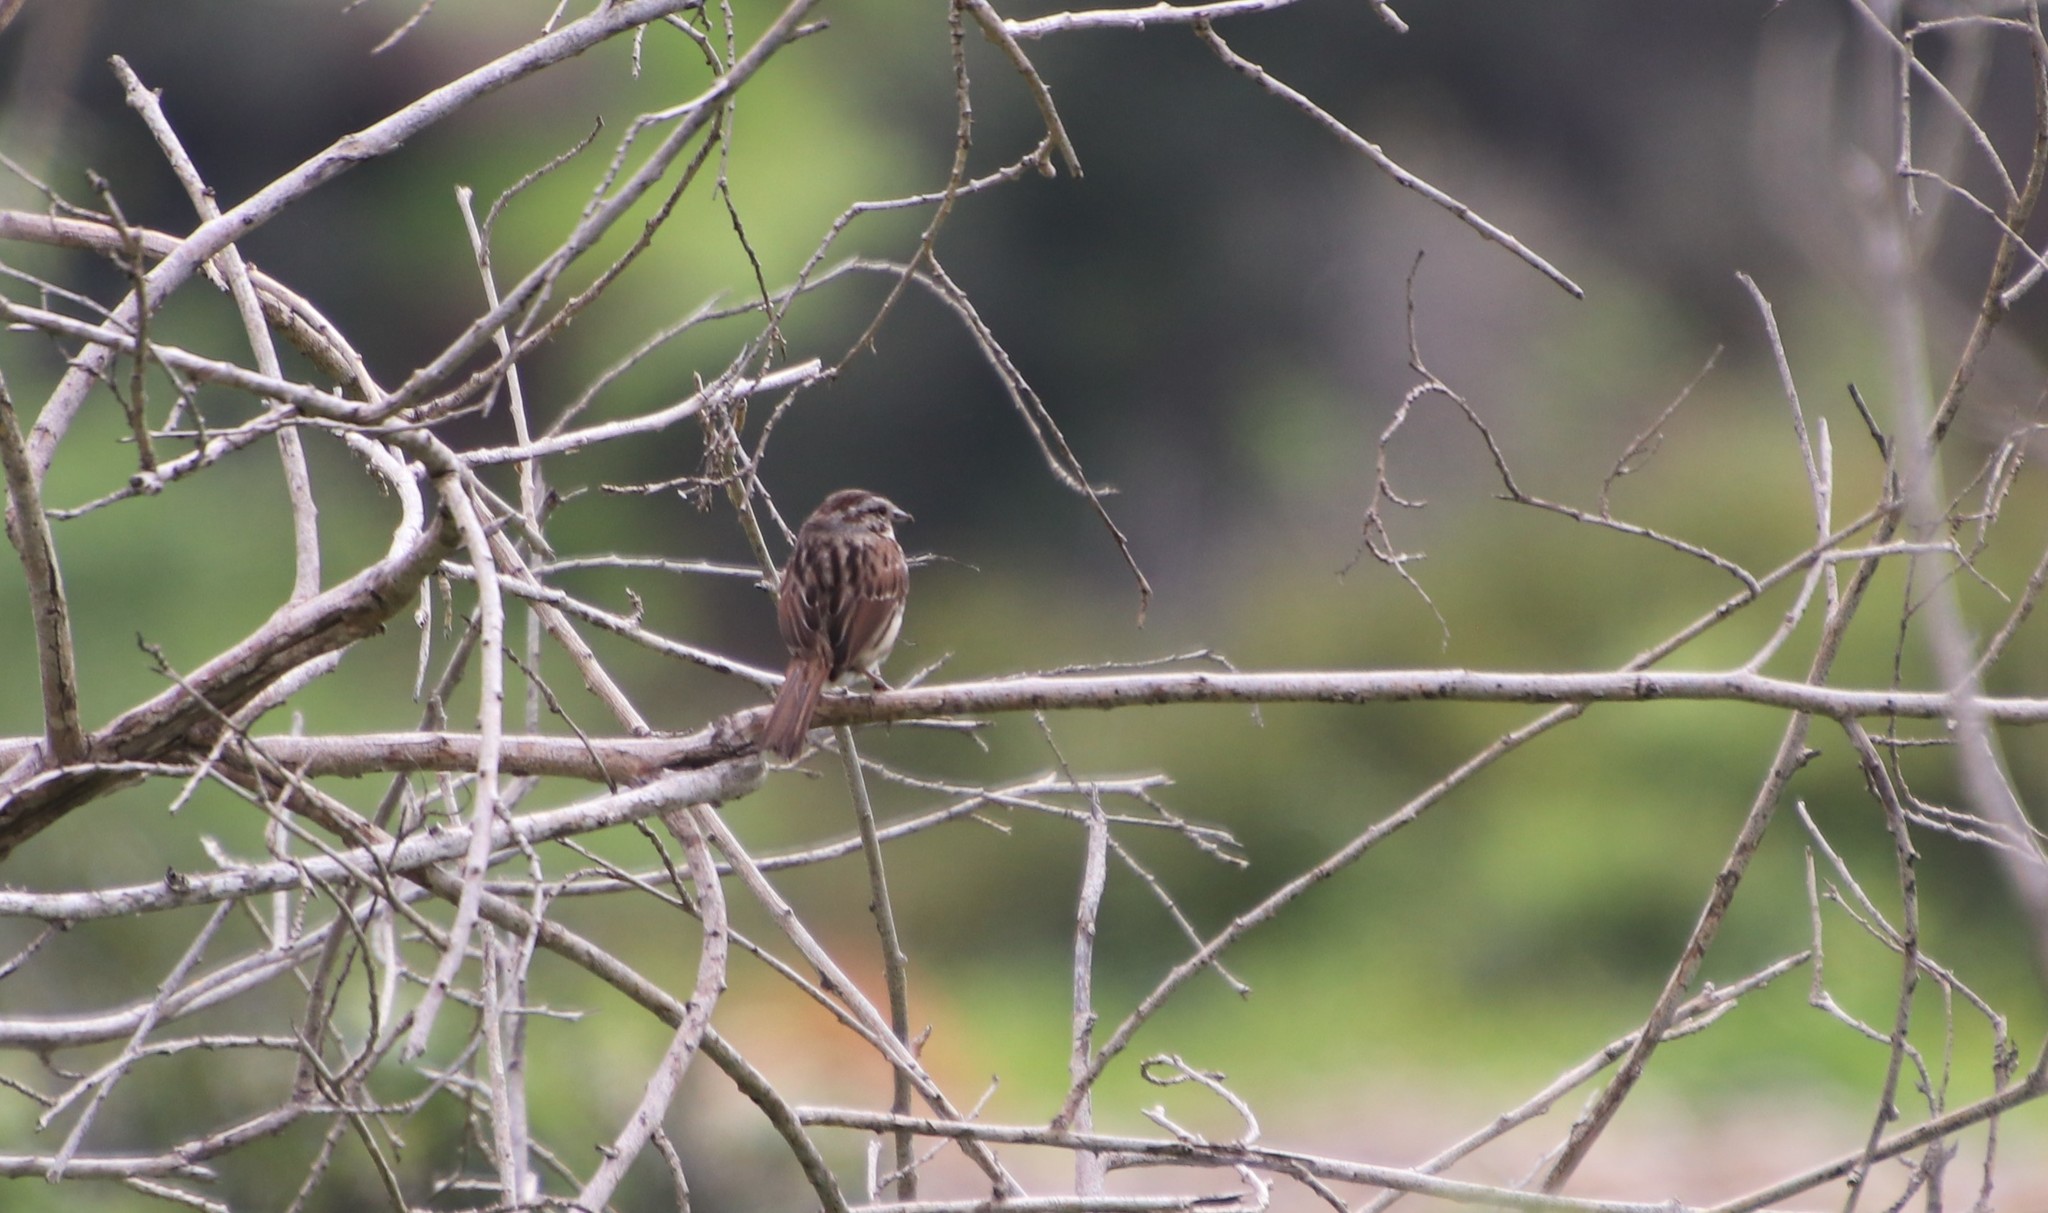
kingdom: Animalia
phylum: Chordata
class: Aves
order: Passeriformes
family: Passerellidae
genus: Melospiza
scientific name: Melospiza melodia
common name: Song sparrow
